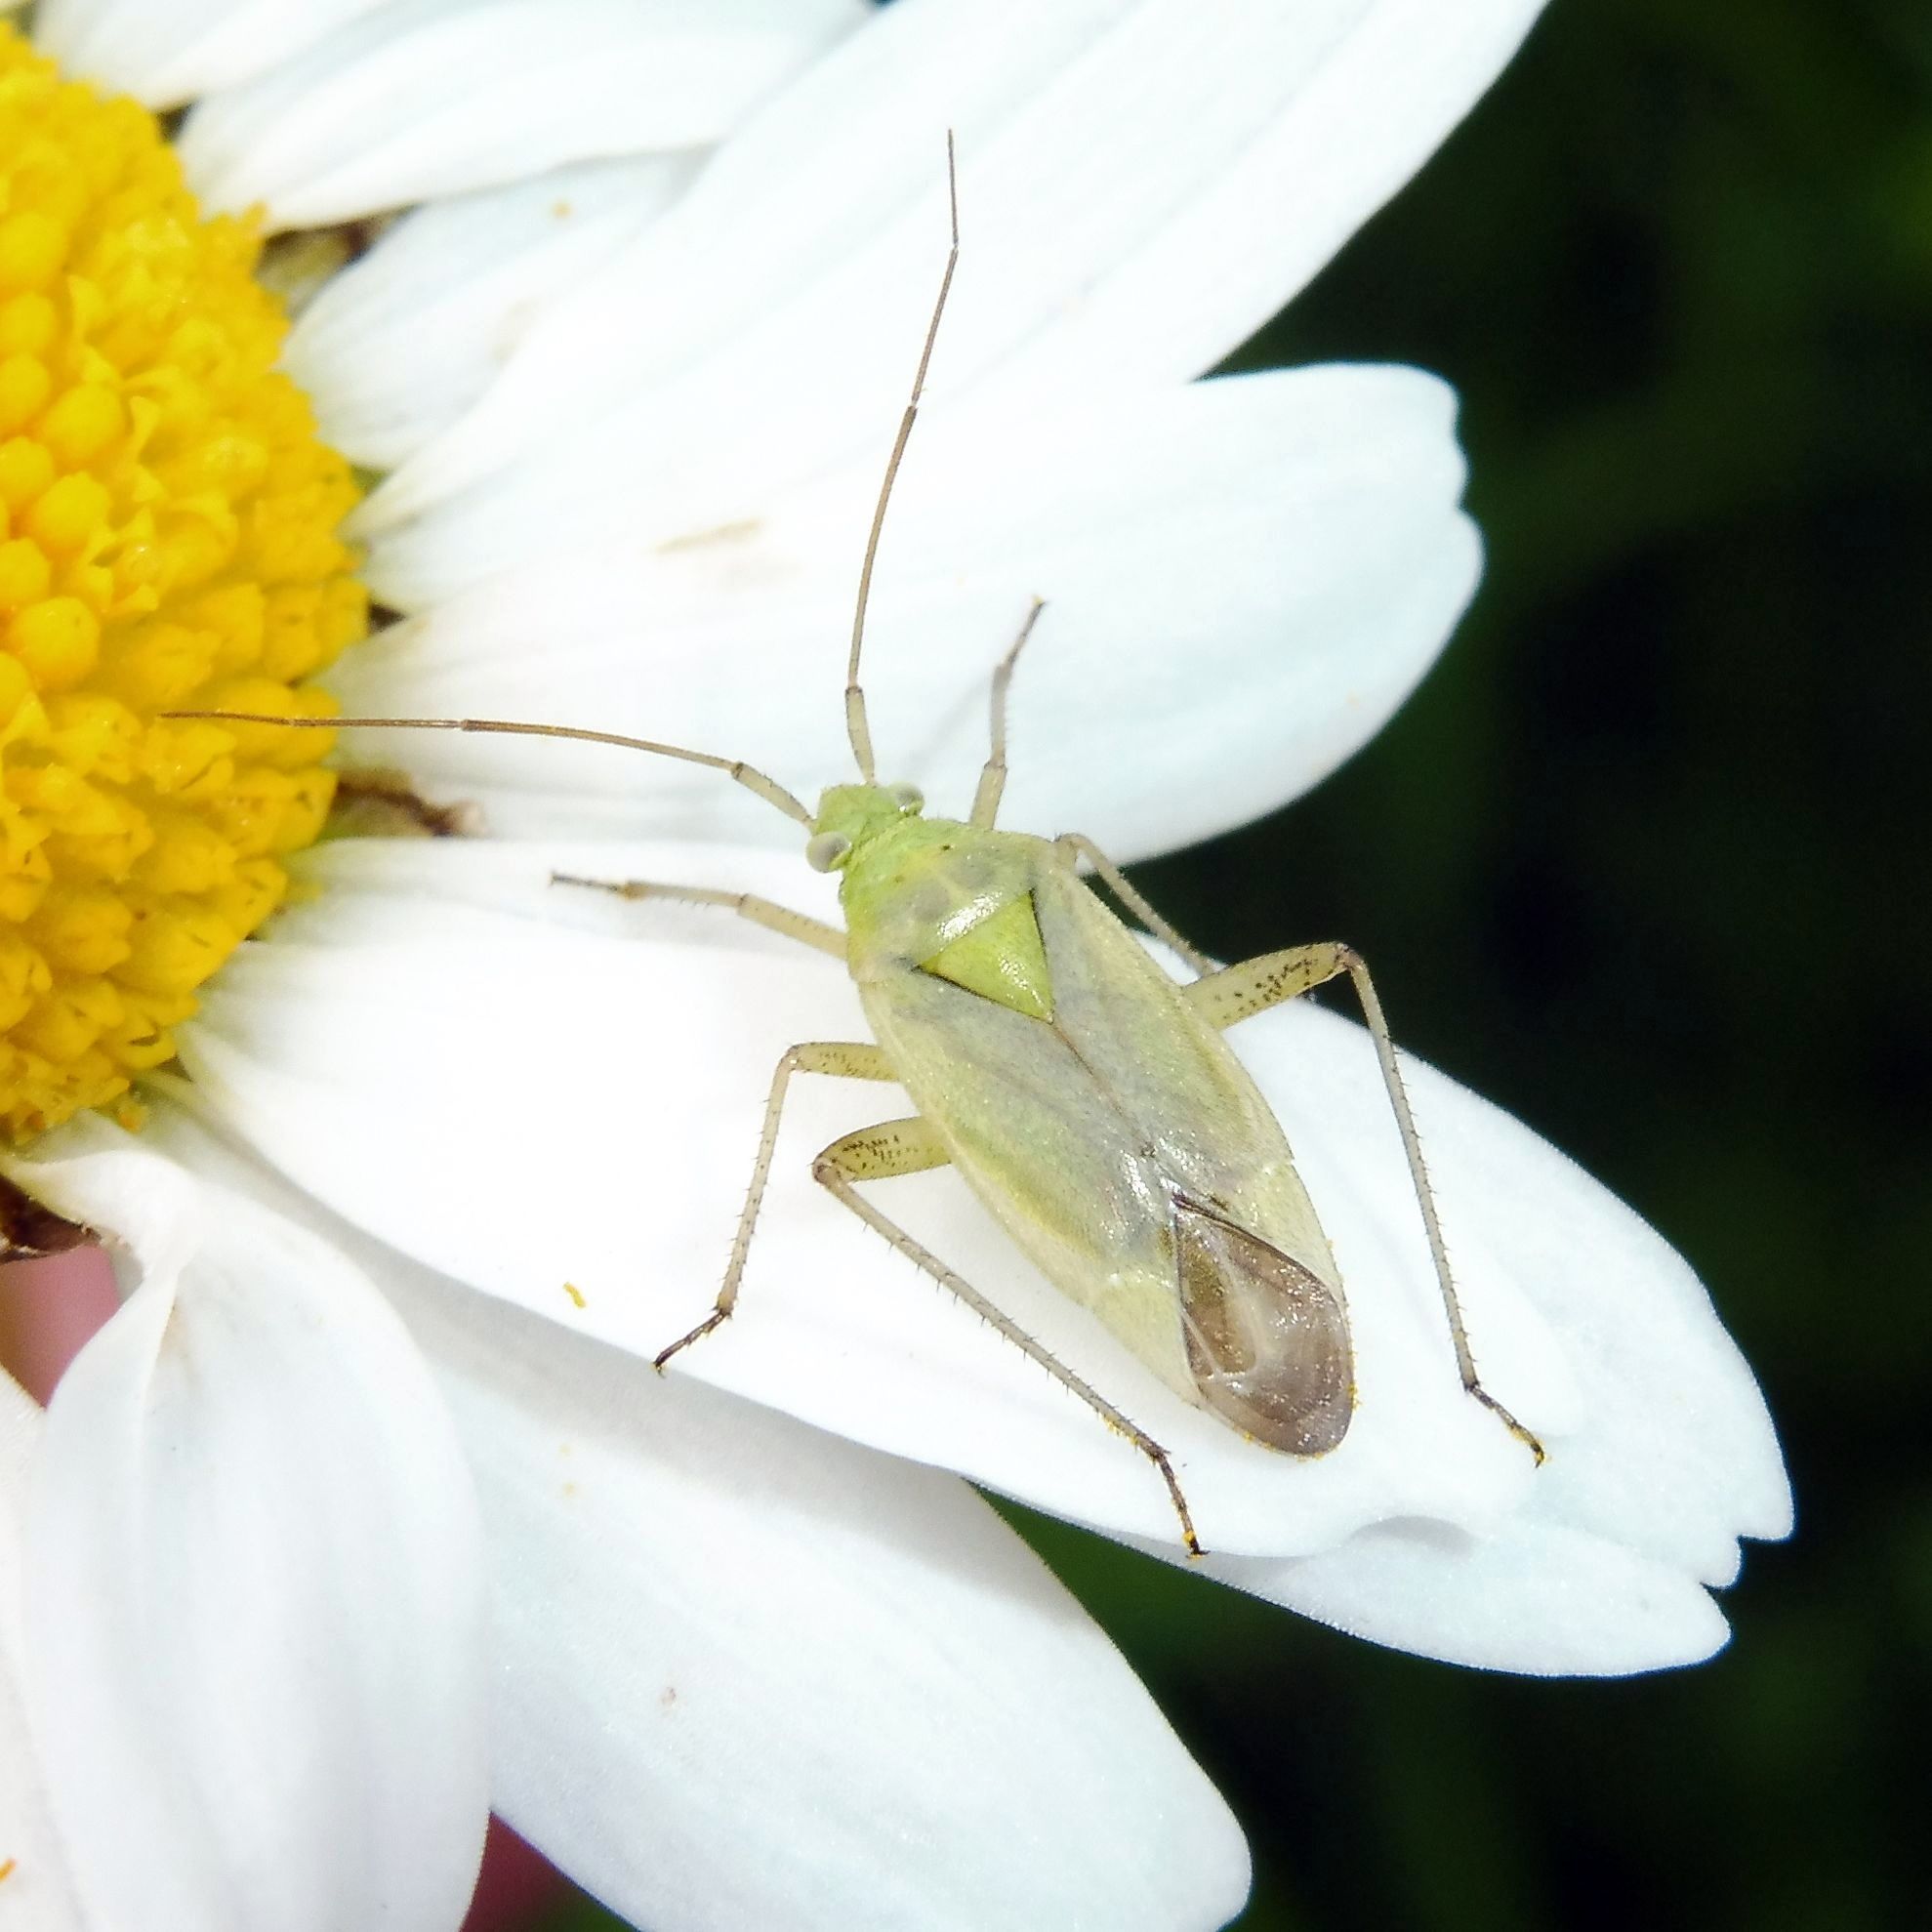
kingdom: Animalia
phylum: Arthropoda
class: Insecta
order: Hemiptera
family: Miridae
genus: Closterotomus
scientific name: Closterotomus norvegicus
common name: Plant bug
